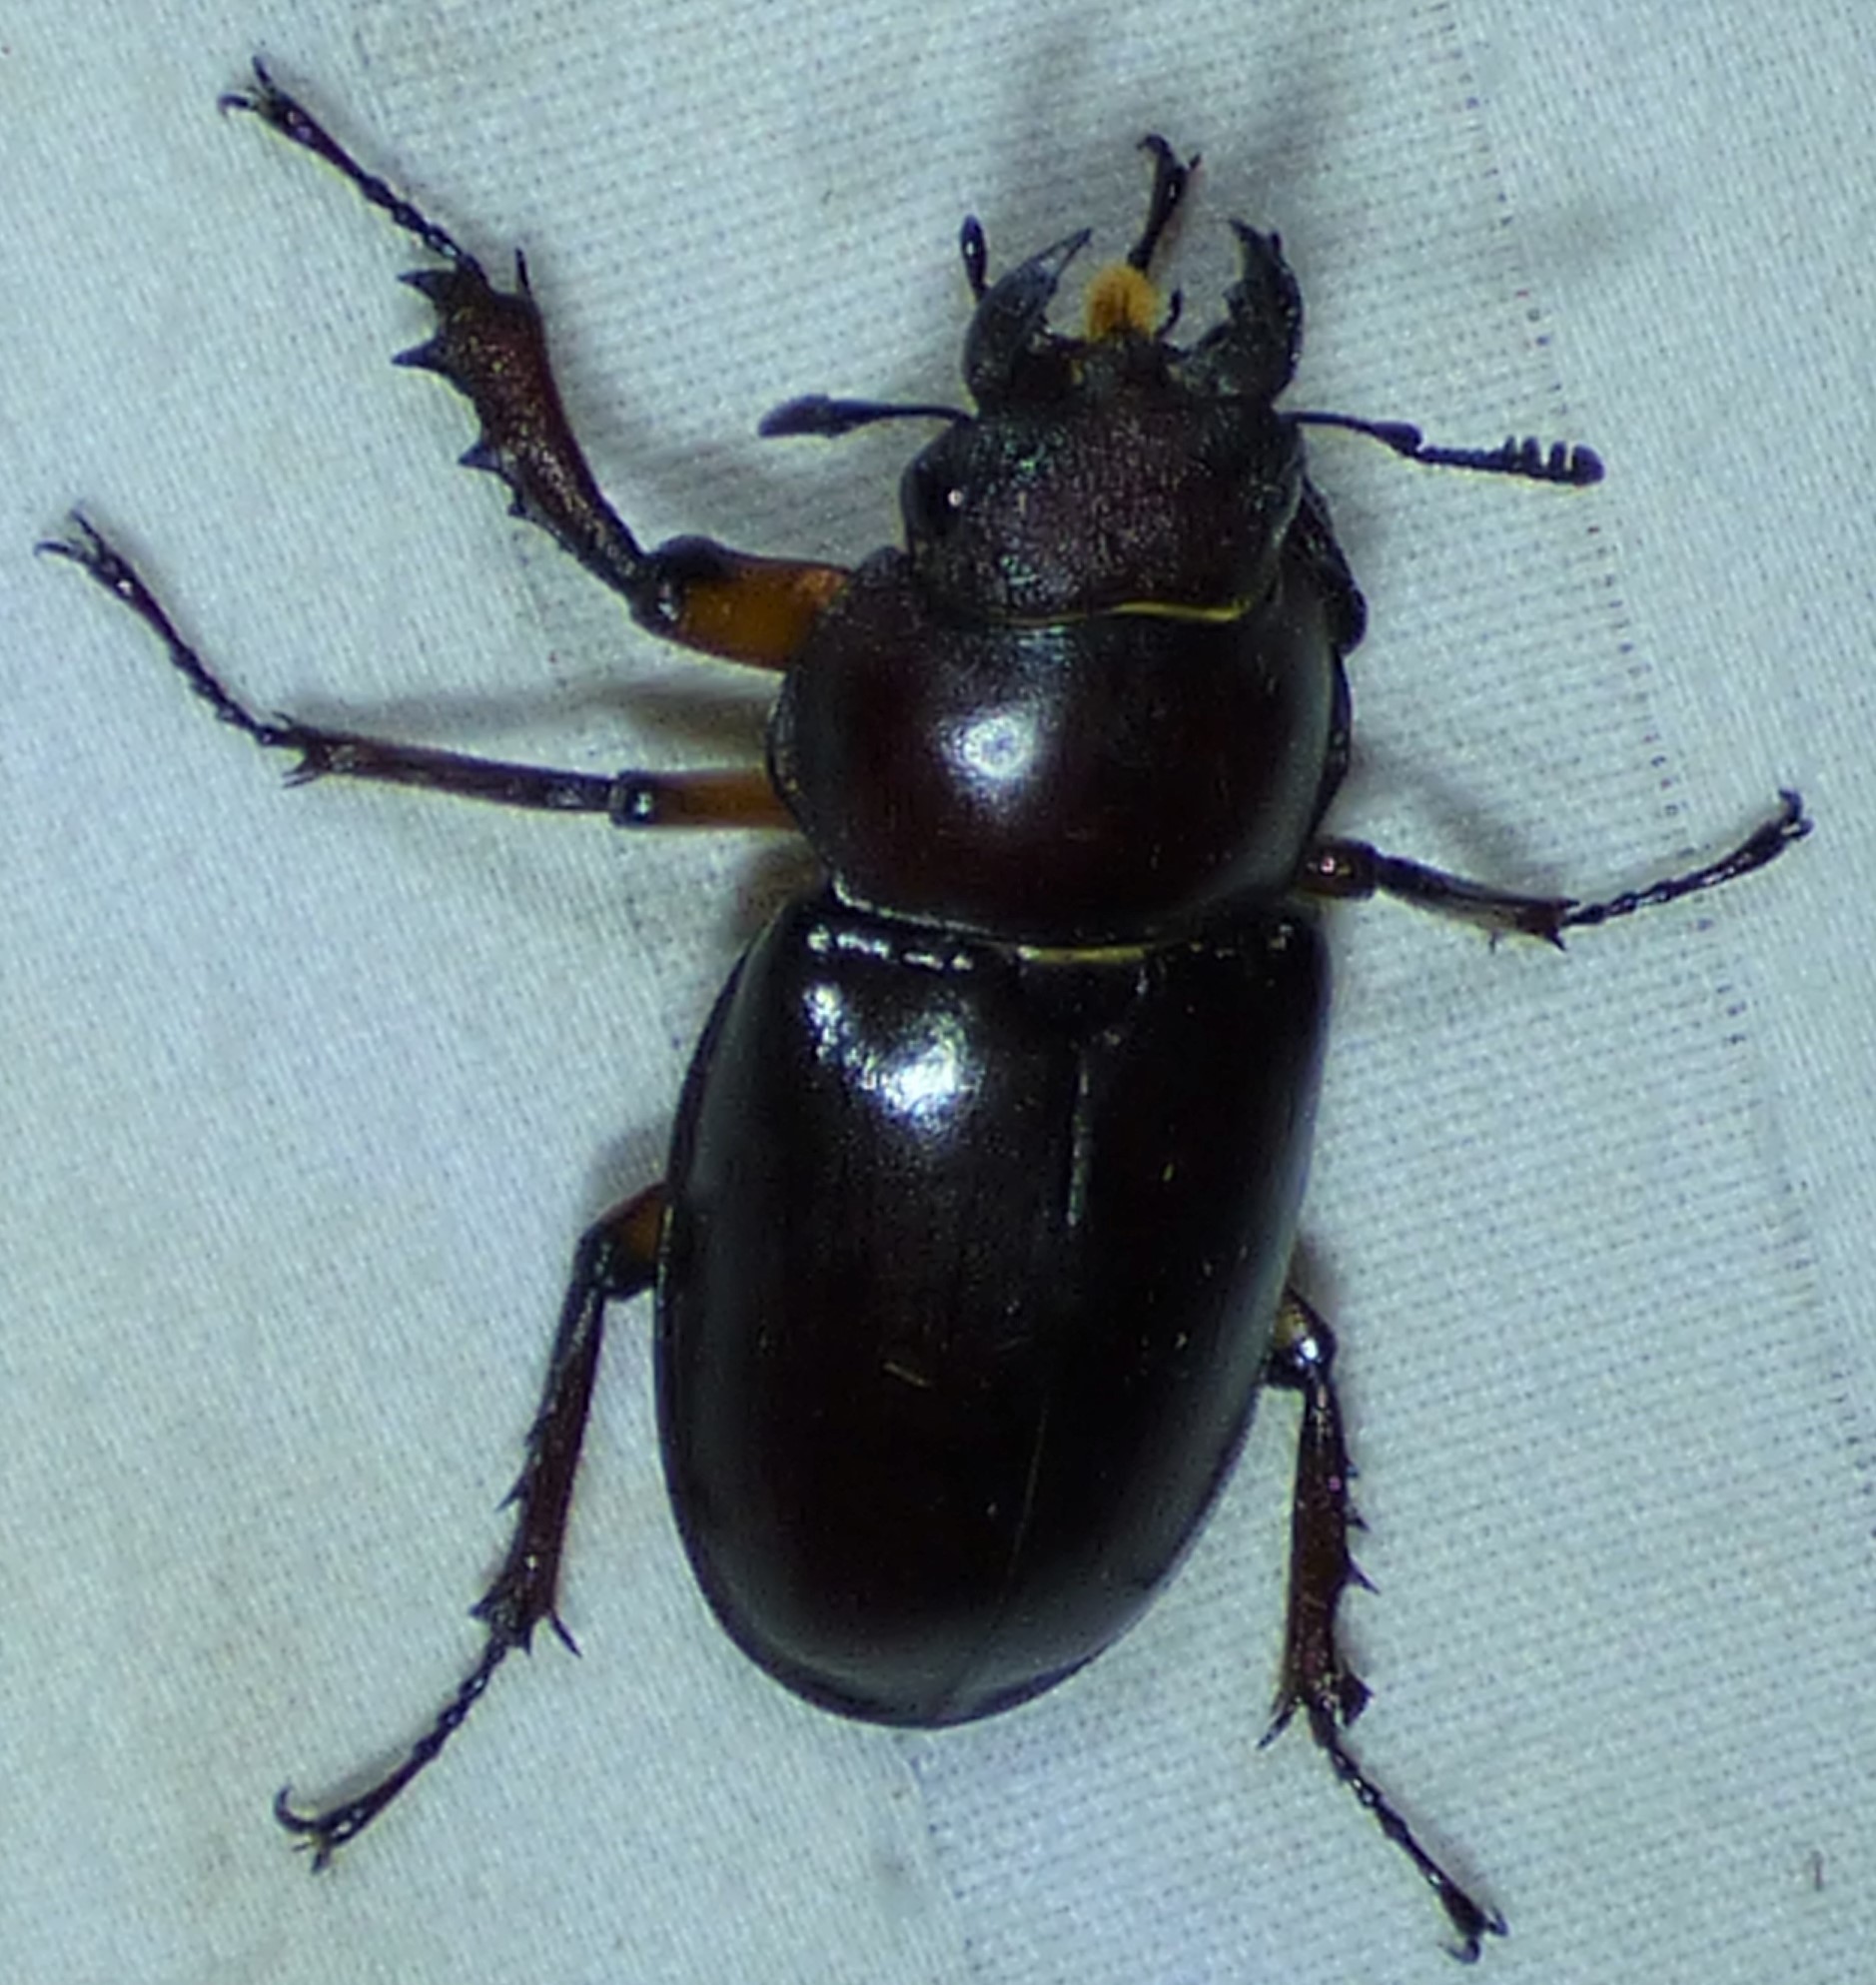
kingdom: Animalia
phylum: Arthropoda
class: Insecta
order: Coleoptera
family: Lucanidae
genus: Lucanus
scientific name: Lucanus capreolus
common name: Stag beetle
